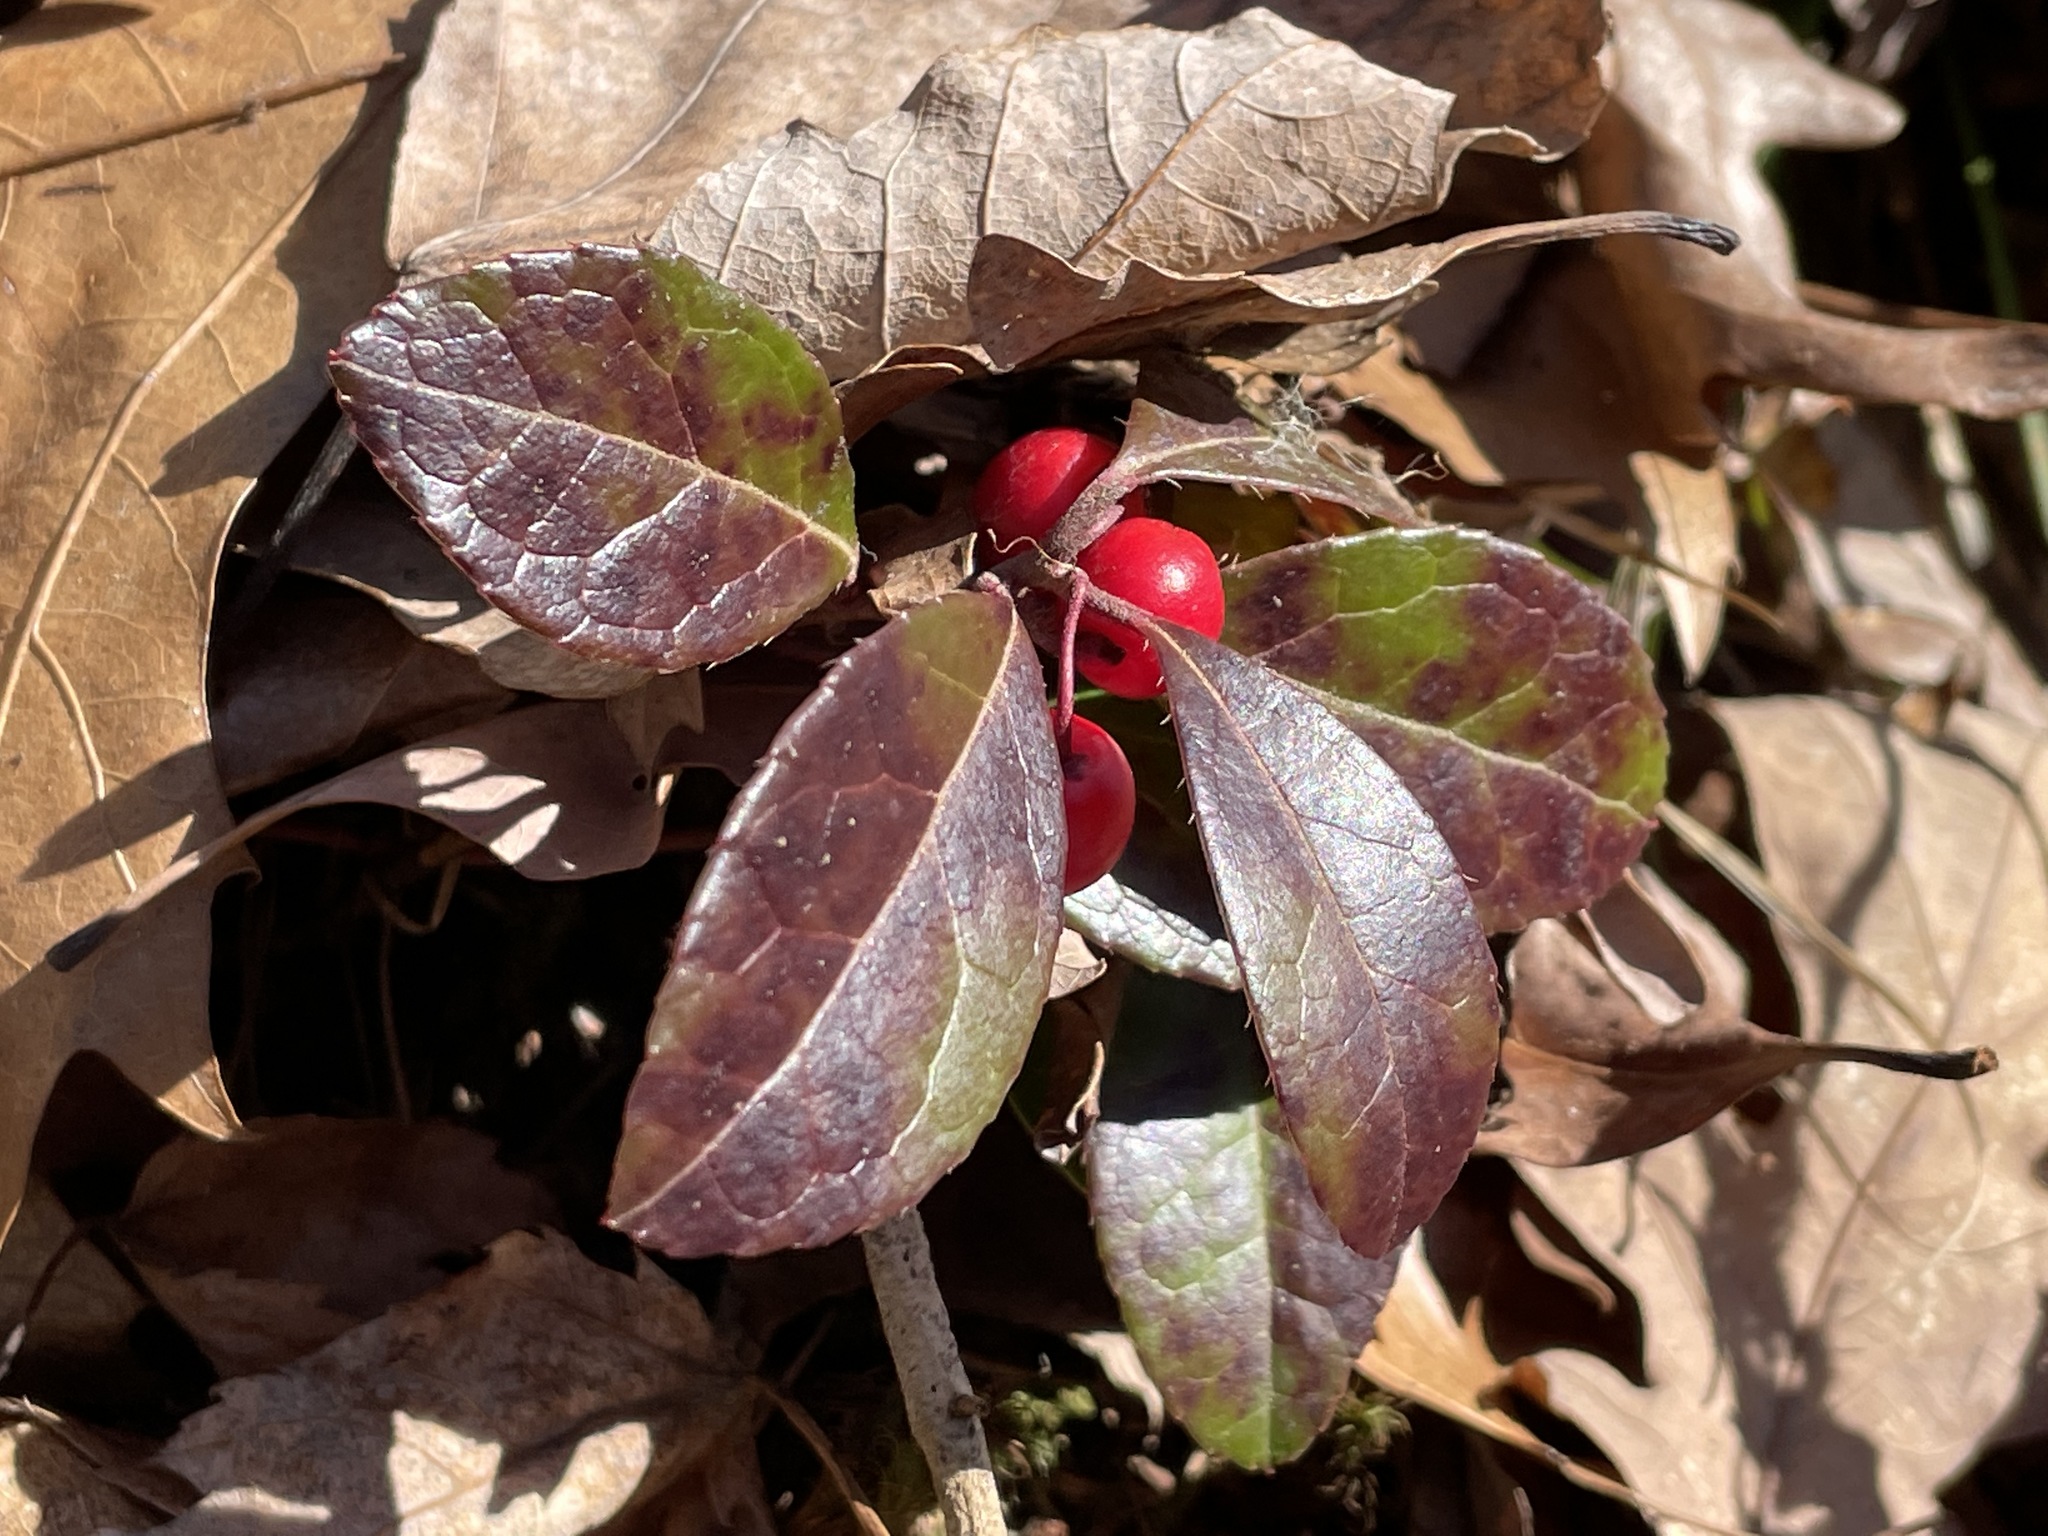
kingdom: Plantae
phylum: Tracheophyta
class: Magnoliopsida
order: Ericales
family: Ericaceae
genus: Gaultheria
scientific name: Gaultheria procumbens
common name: Checkerberry
